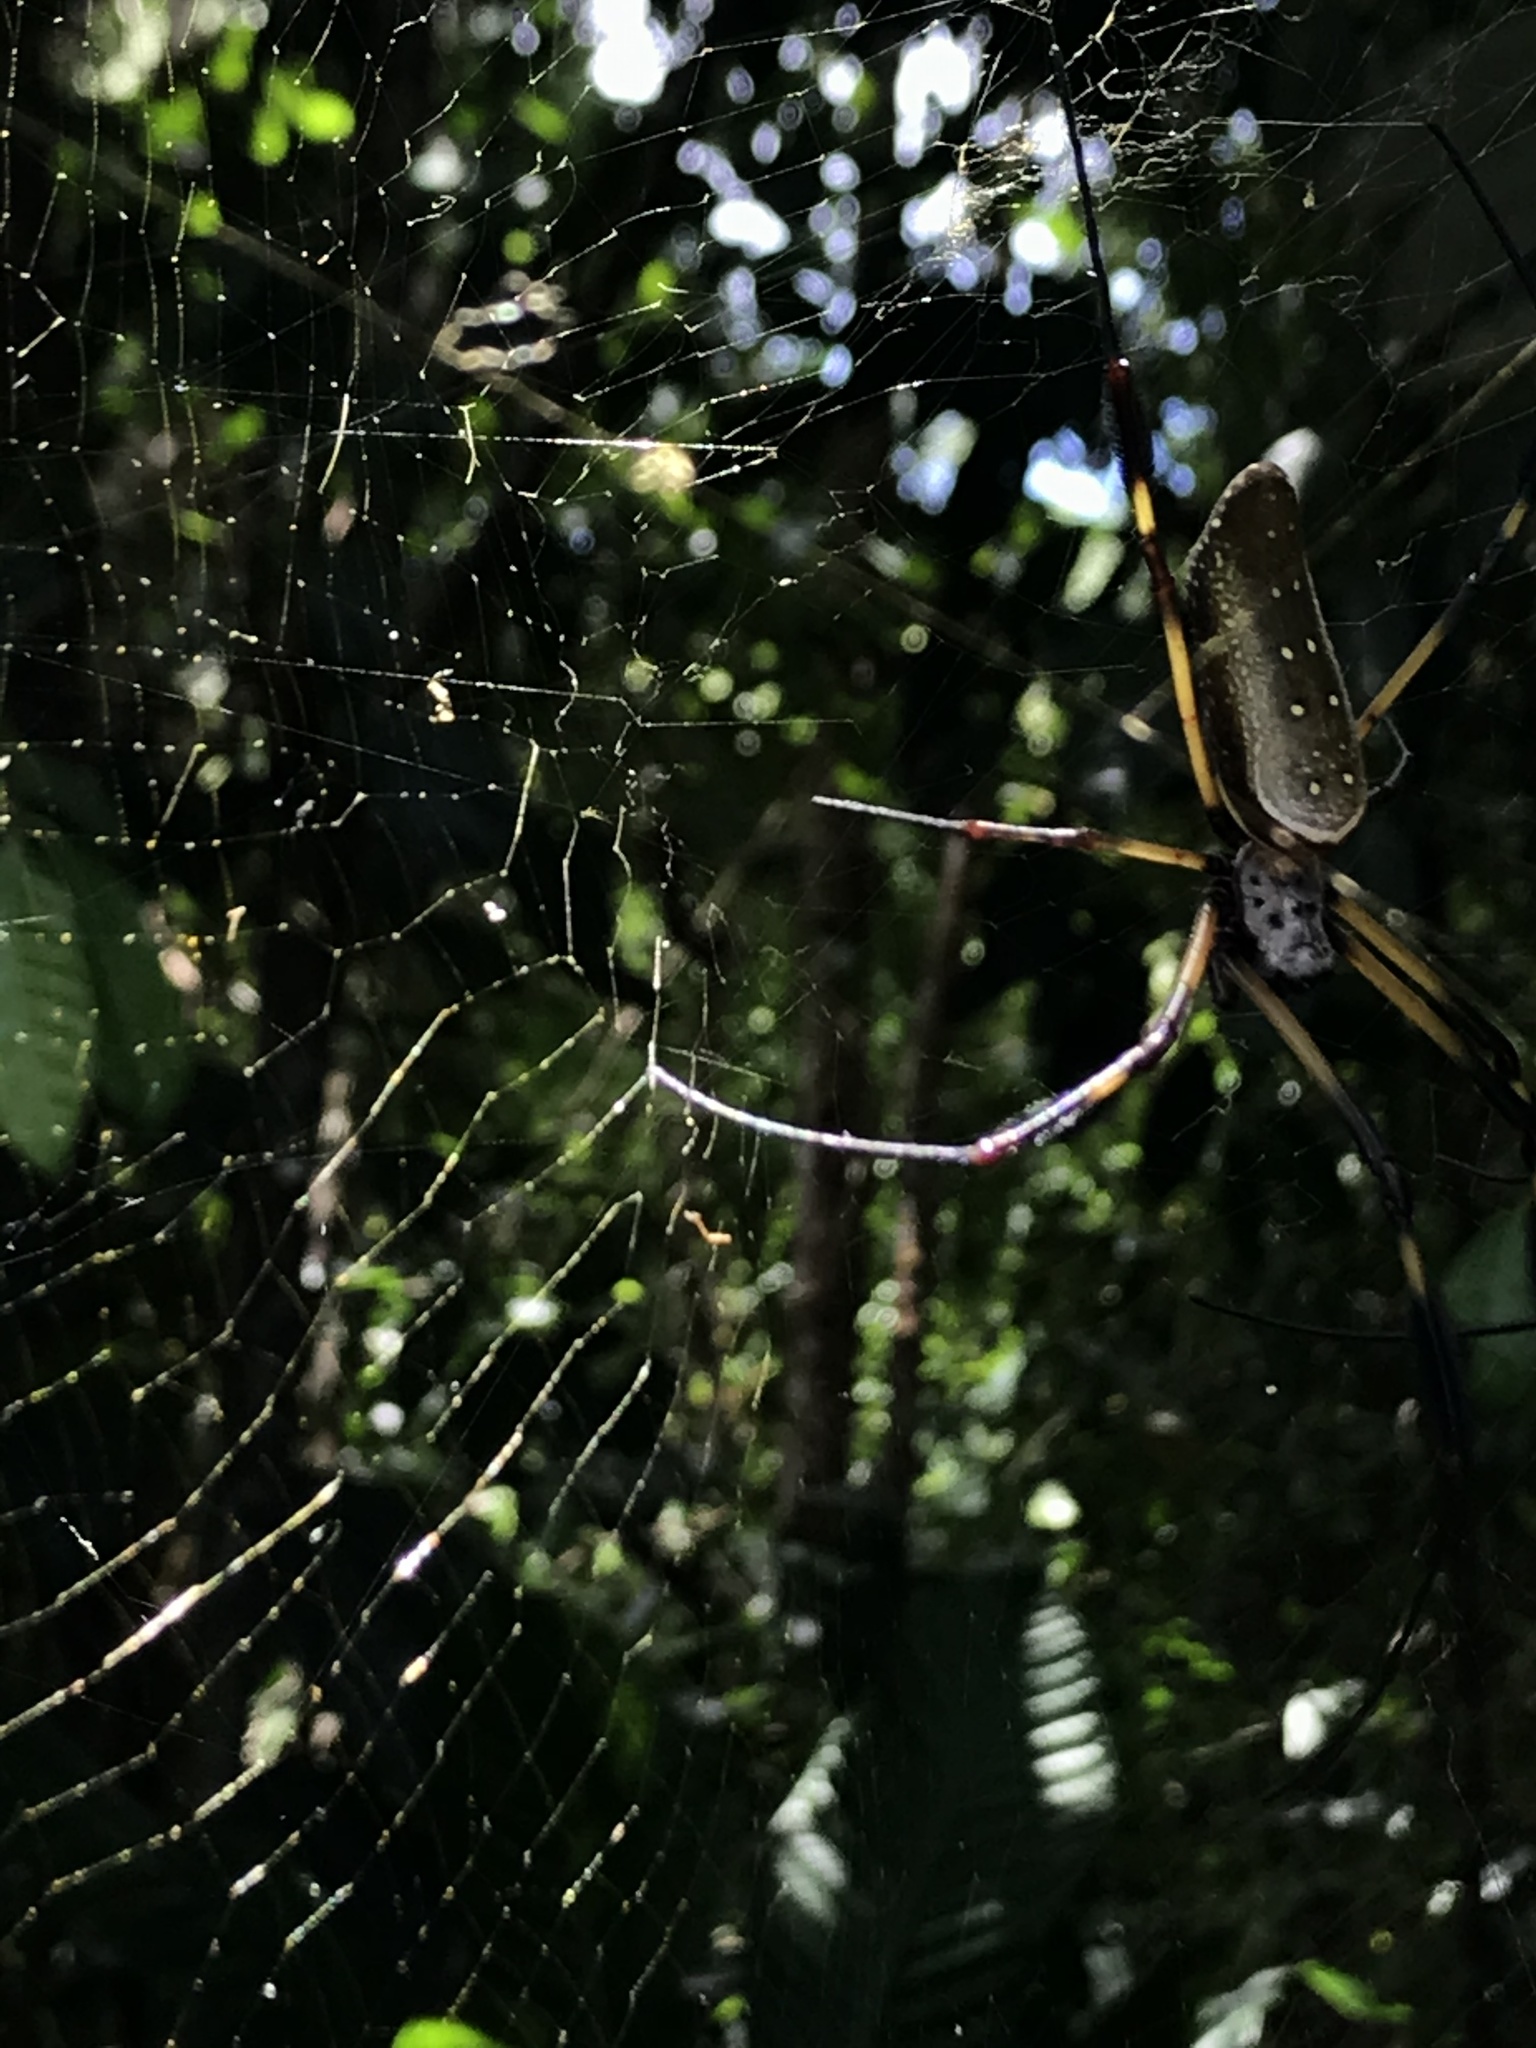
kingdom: Animalia
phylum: Arthropoda
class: Arachnida
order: Araneae
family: Araneidae
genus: Trichonephila
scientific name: Trichonephila clavipes
